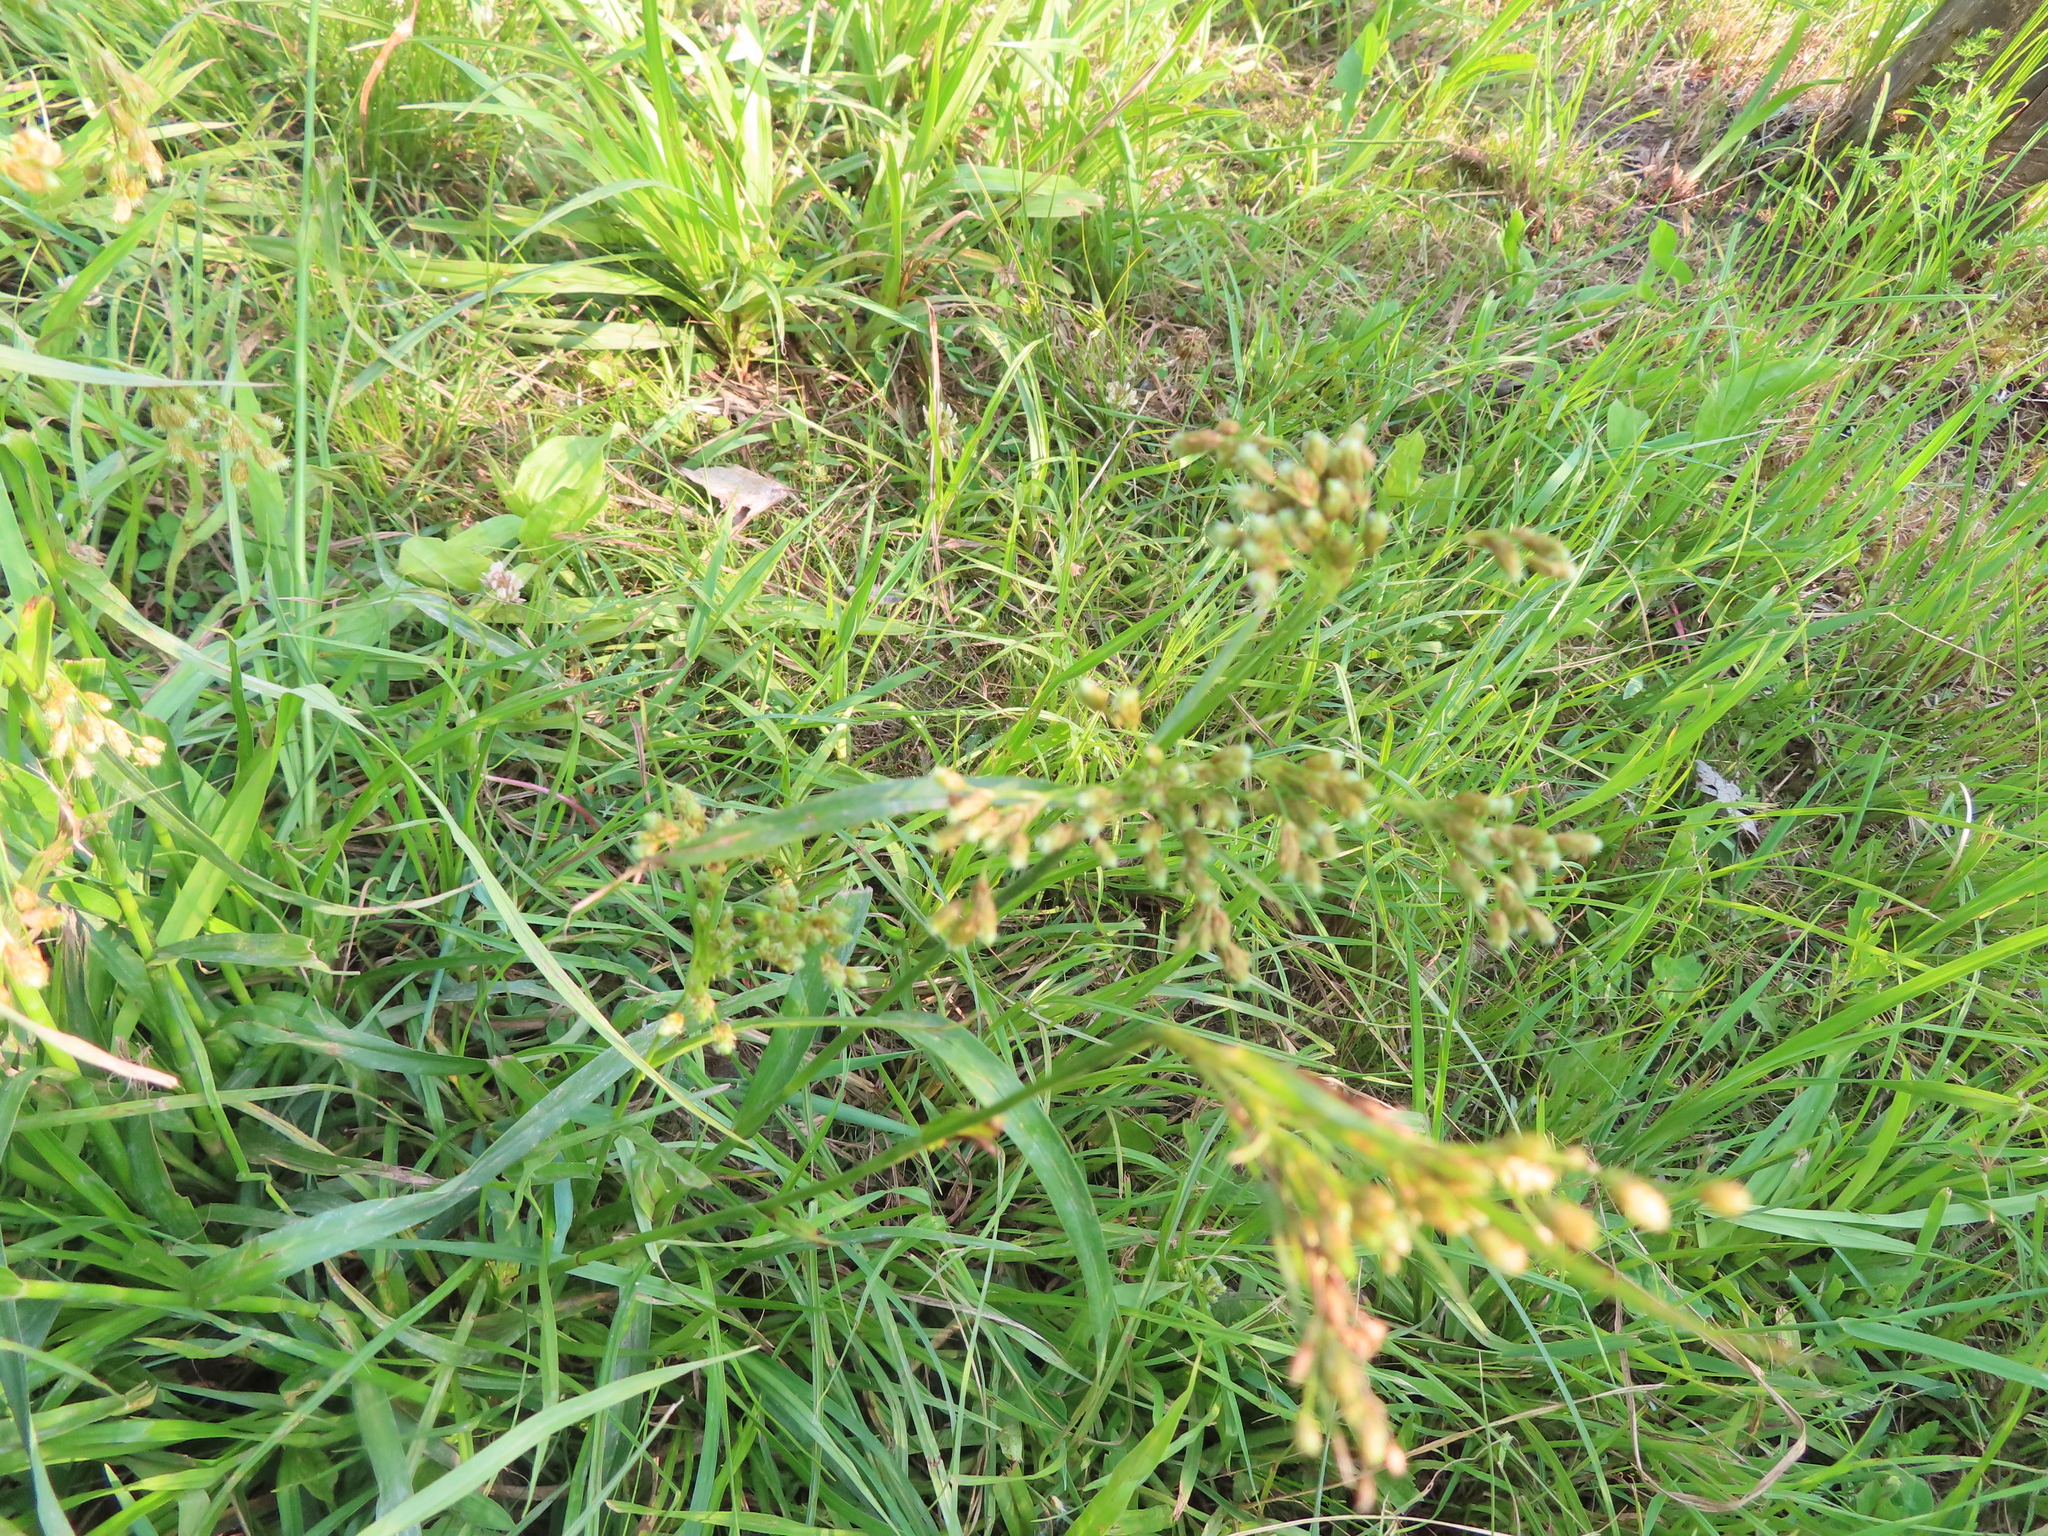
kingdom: Plantae
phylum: Tracheophyta
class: Liliopsida
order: Poales
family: Cyperaceae
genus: Scirpus
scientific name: Scirpus pendulus
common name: Nodding bulrush
